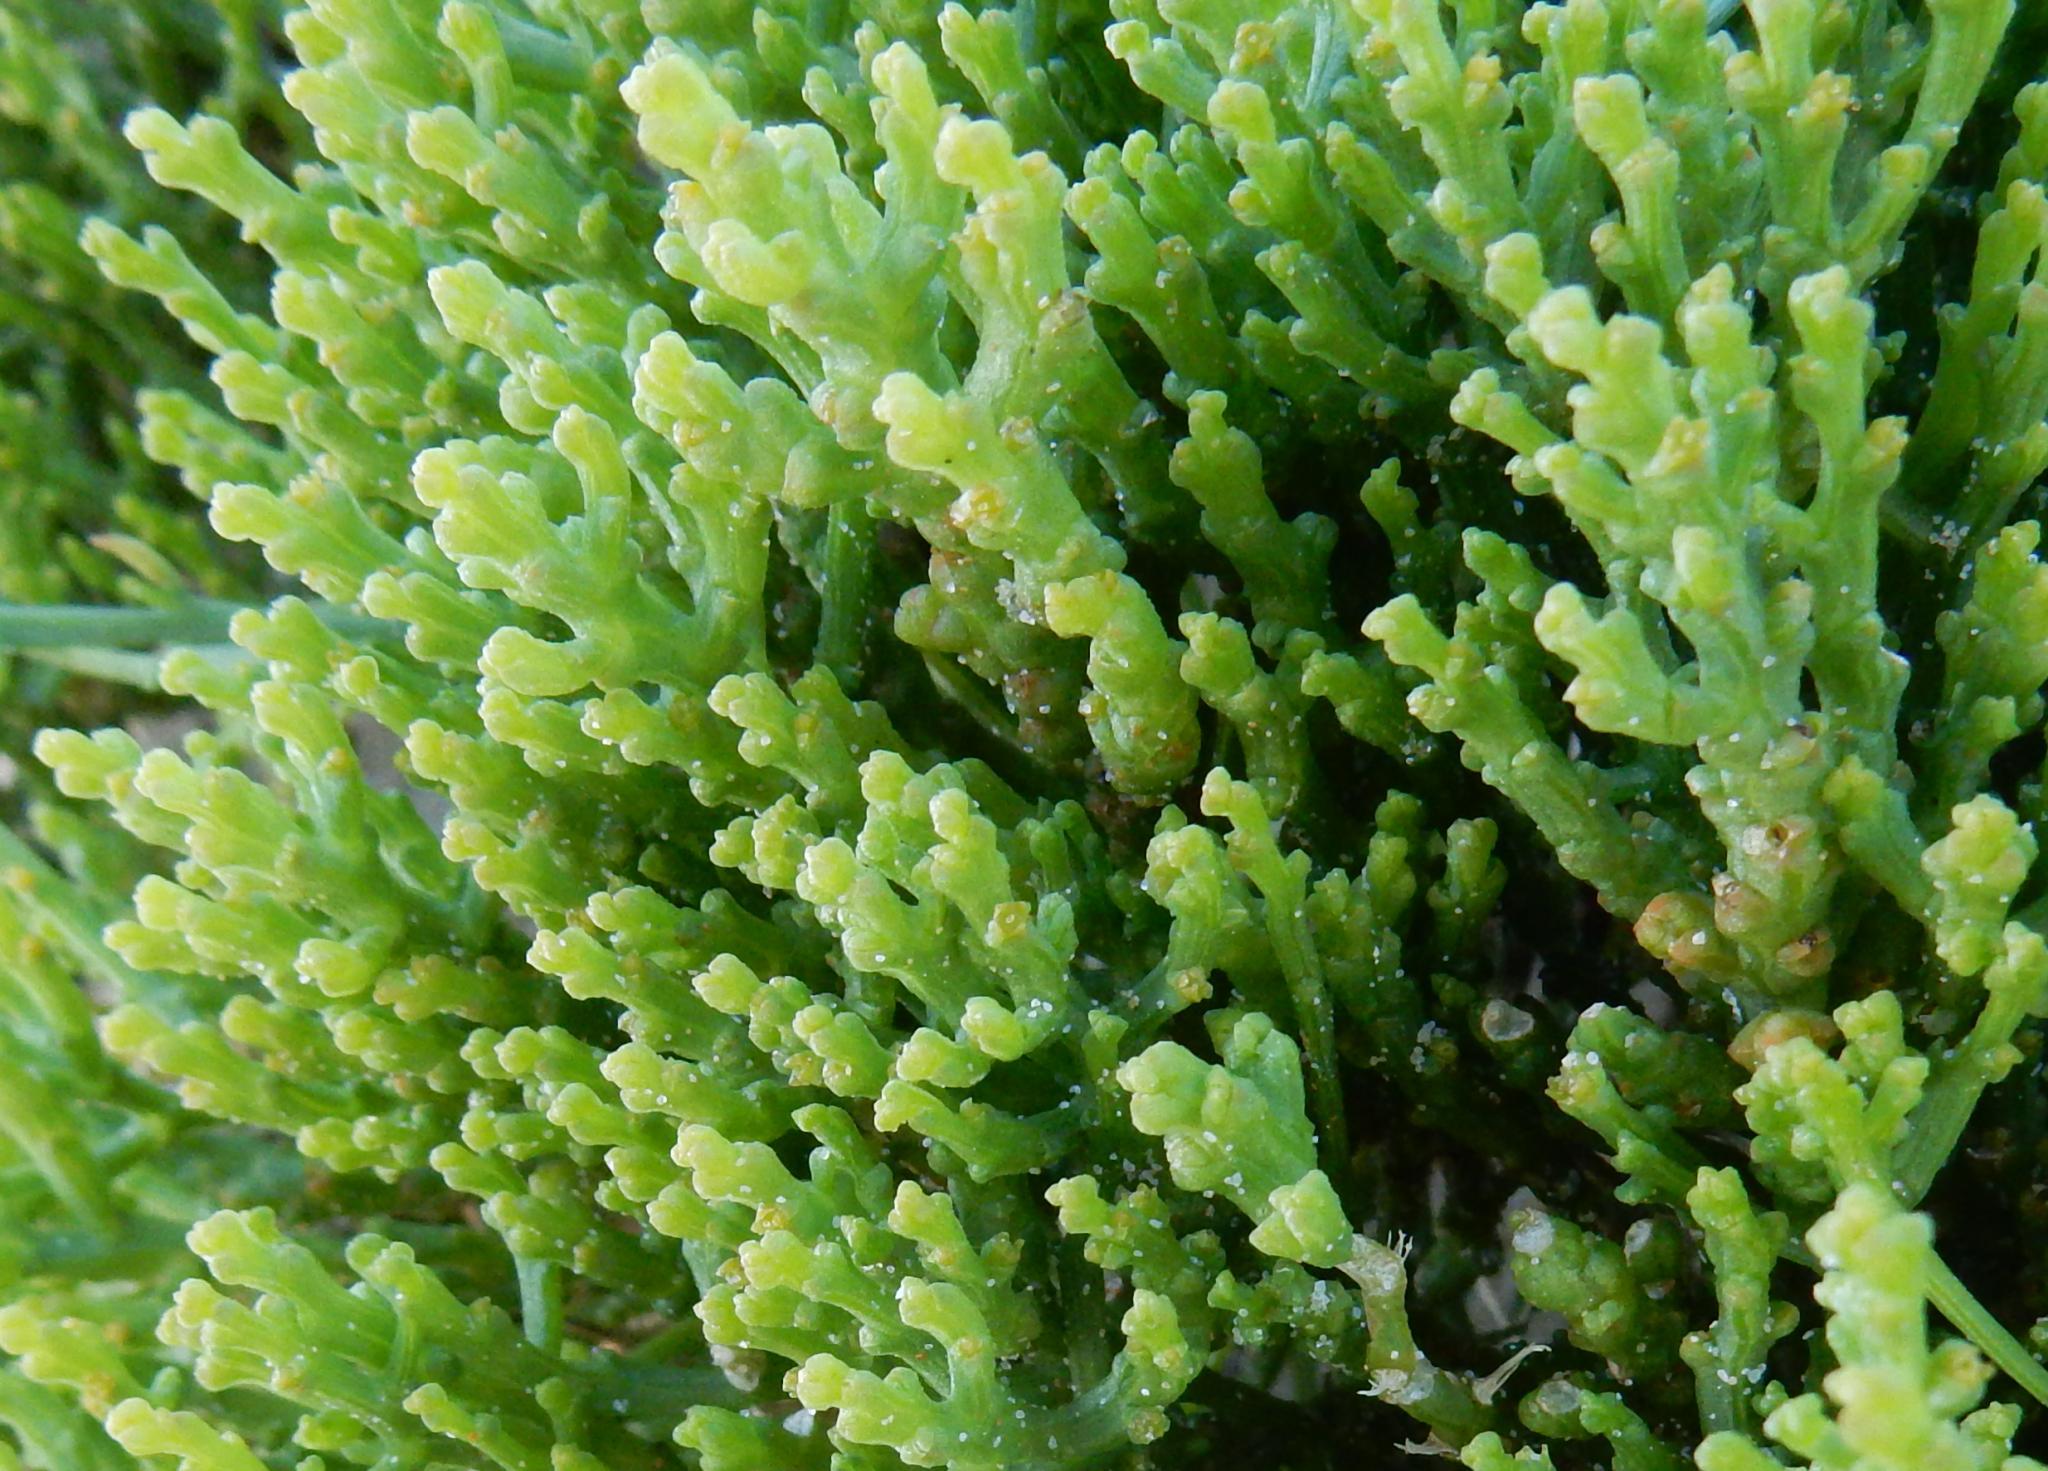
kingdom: Plantae
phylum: Tracheophyta
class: Magnoliopsida
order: Santalales
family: Thesiaceae
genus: Thesium
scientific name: Thesium fragile
